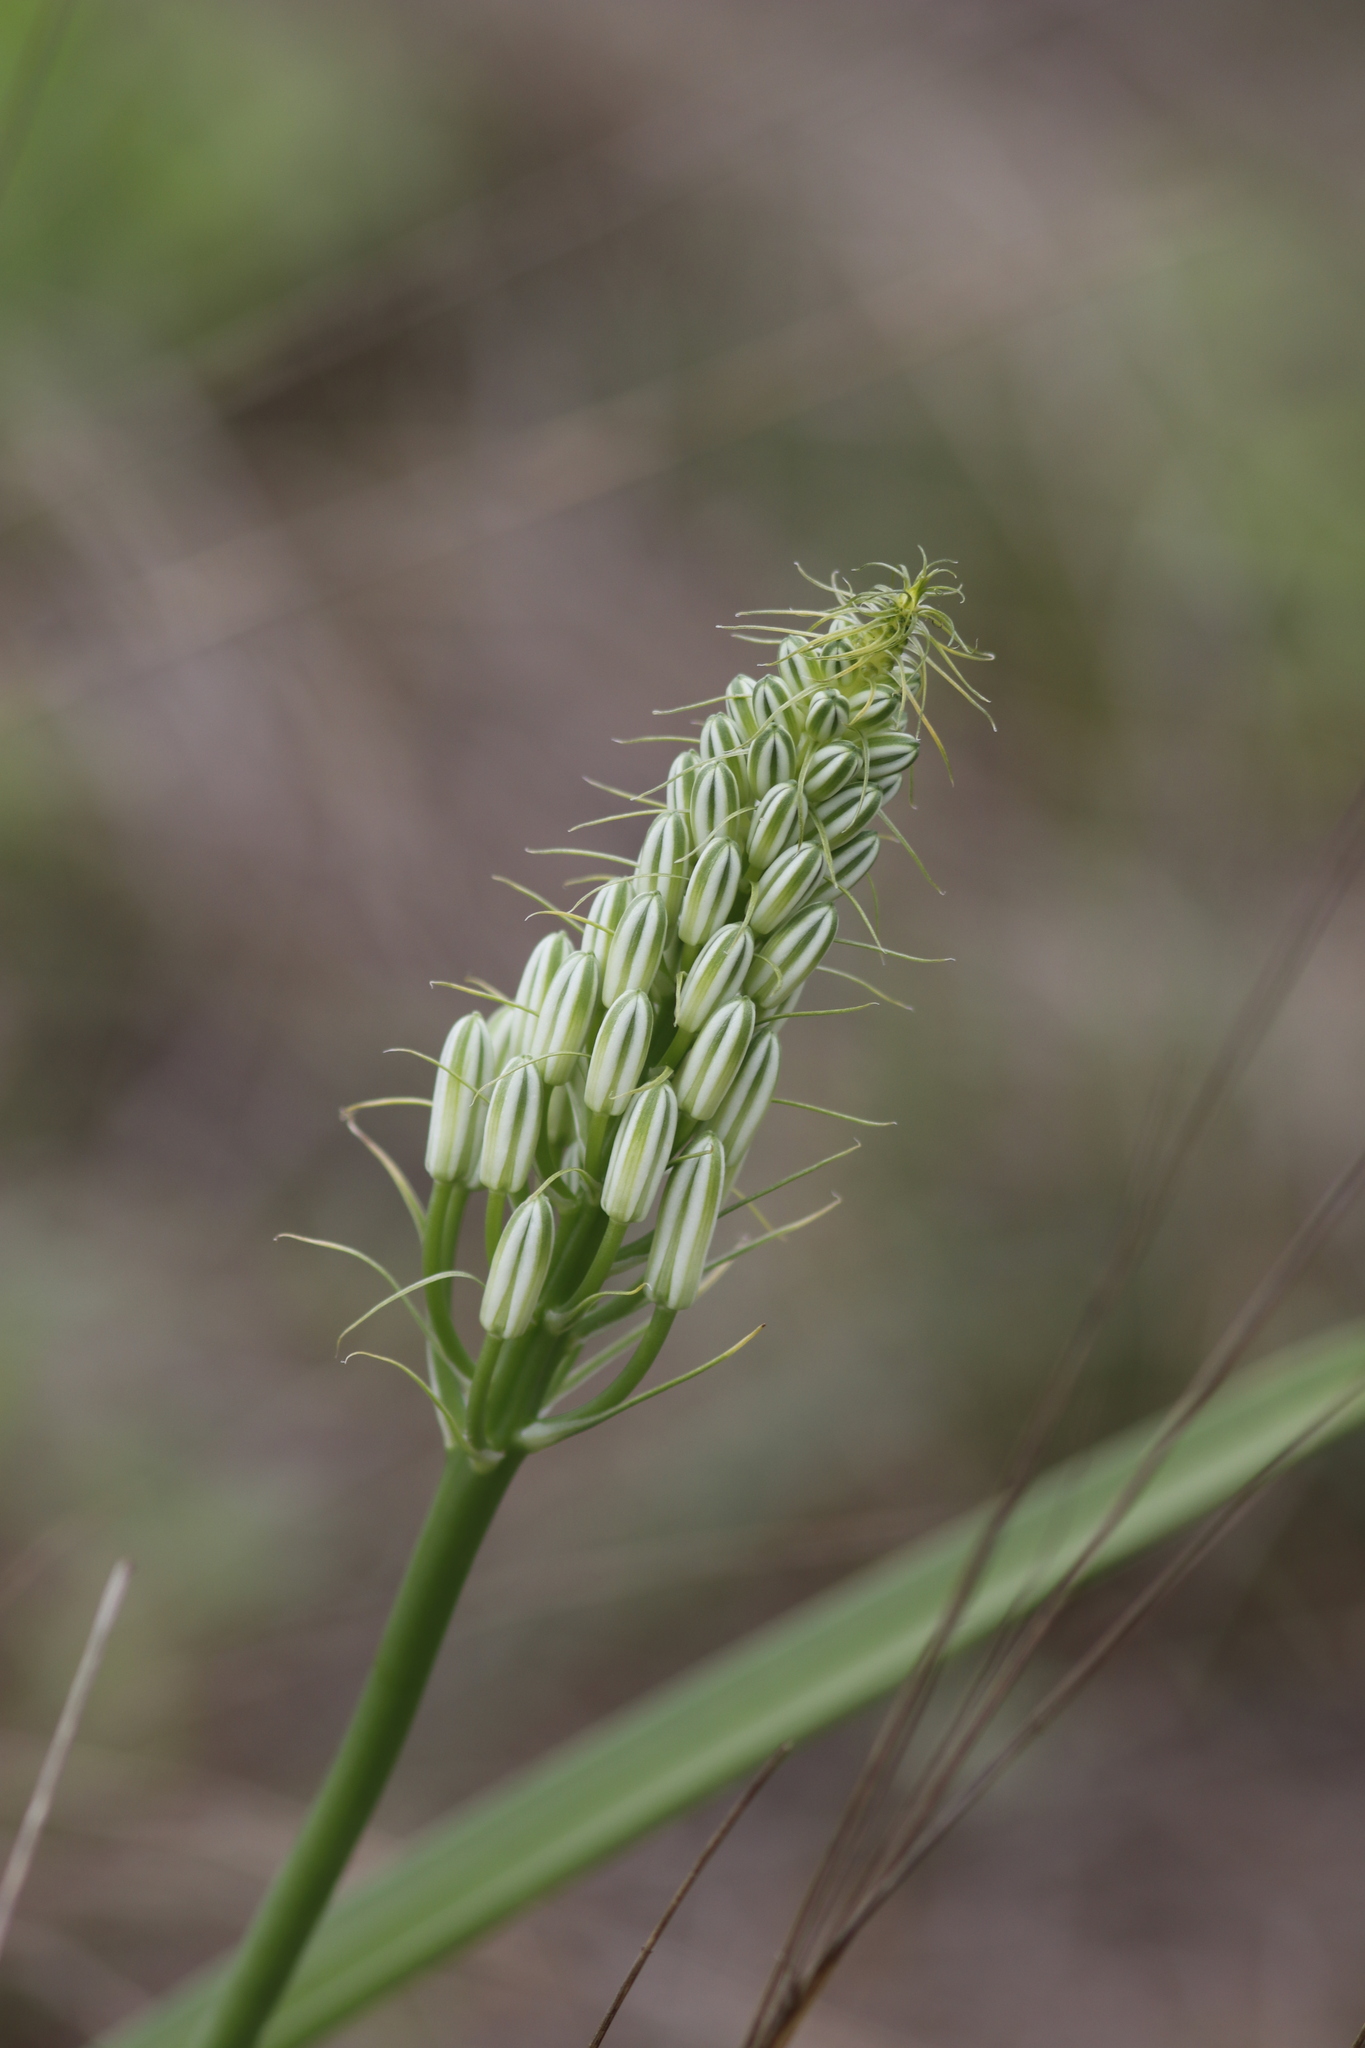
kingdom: Plantae
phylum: Tracheophyta
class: Liliopsida
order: Asparagales
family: Asparagaceae
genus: Albuca
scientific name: Albuca seineri
